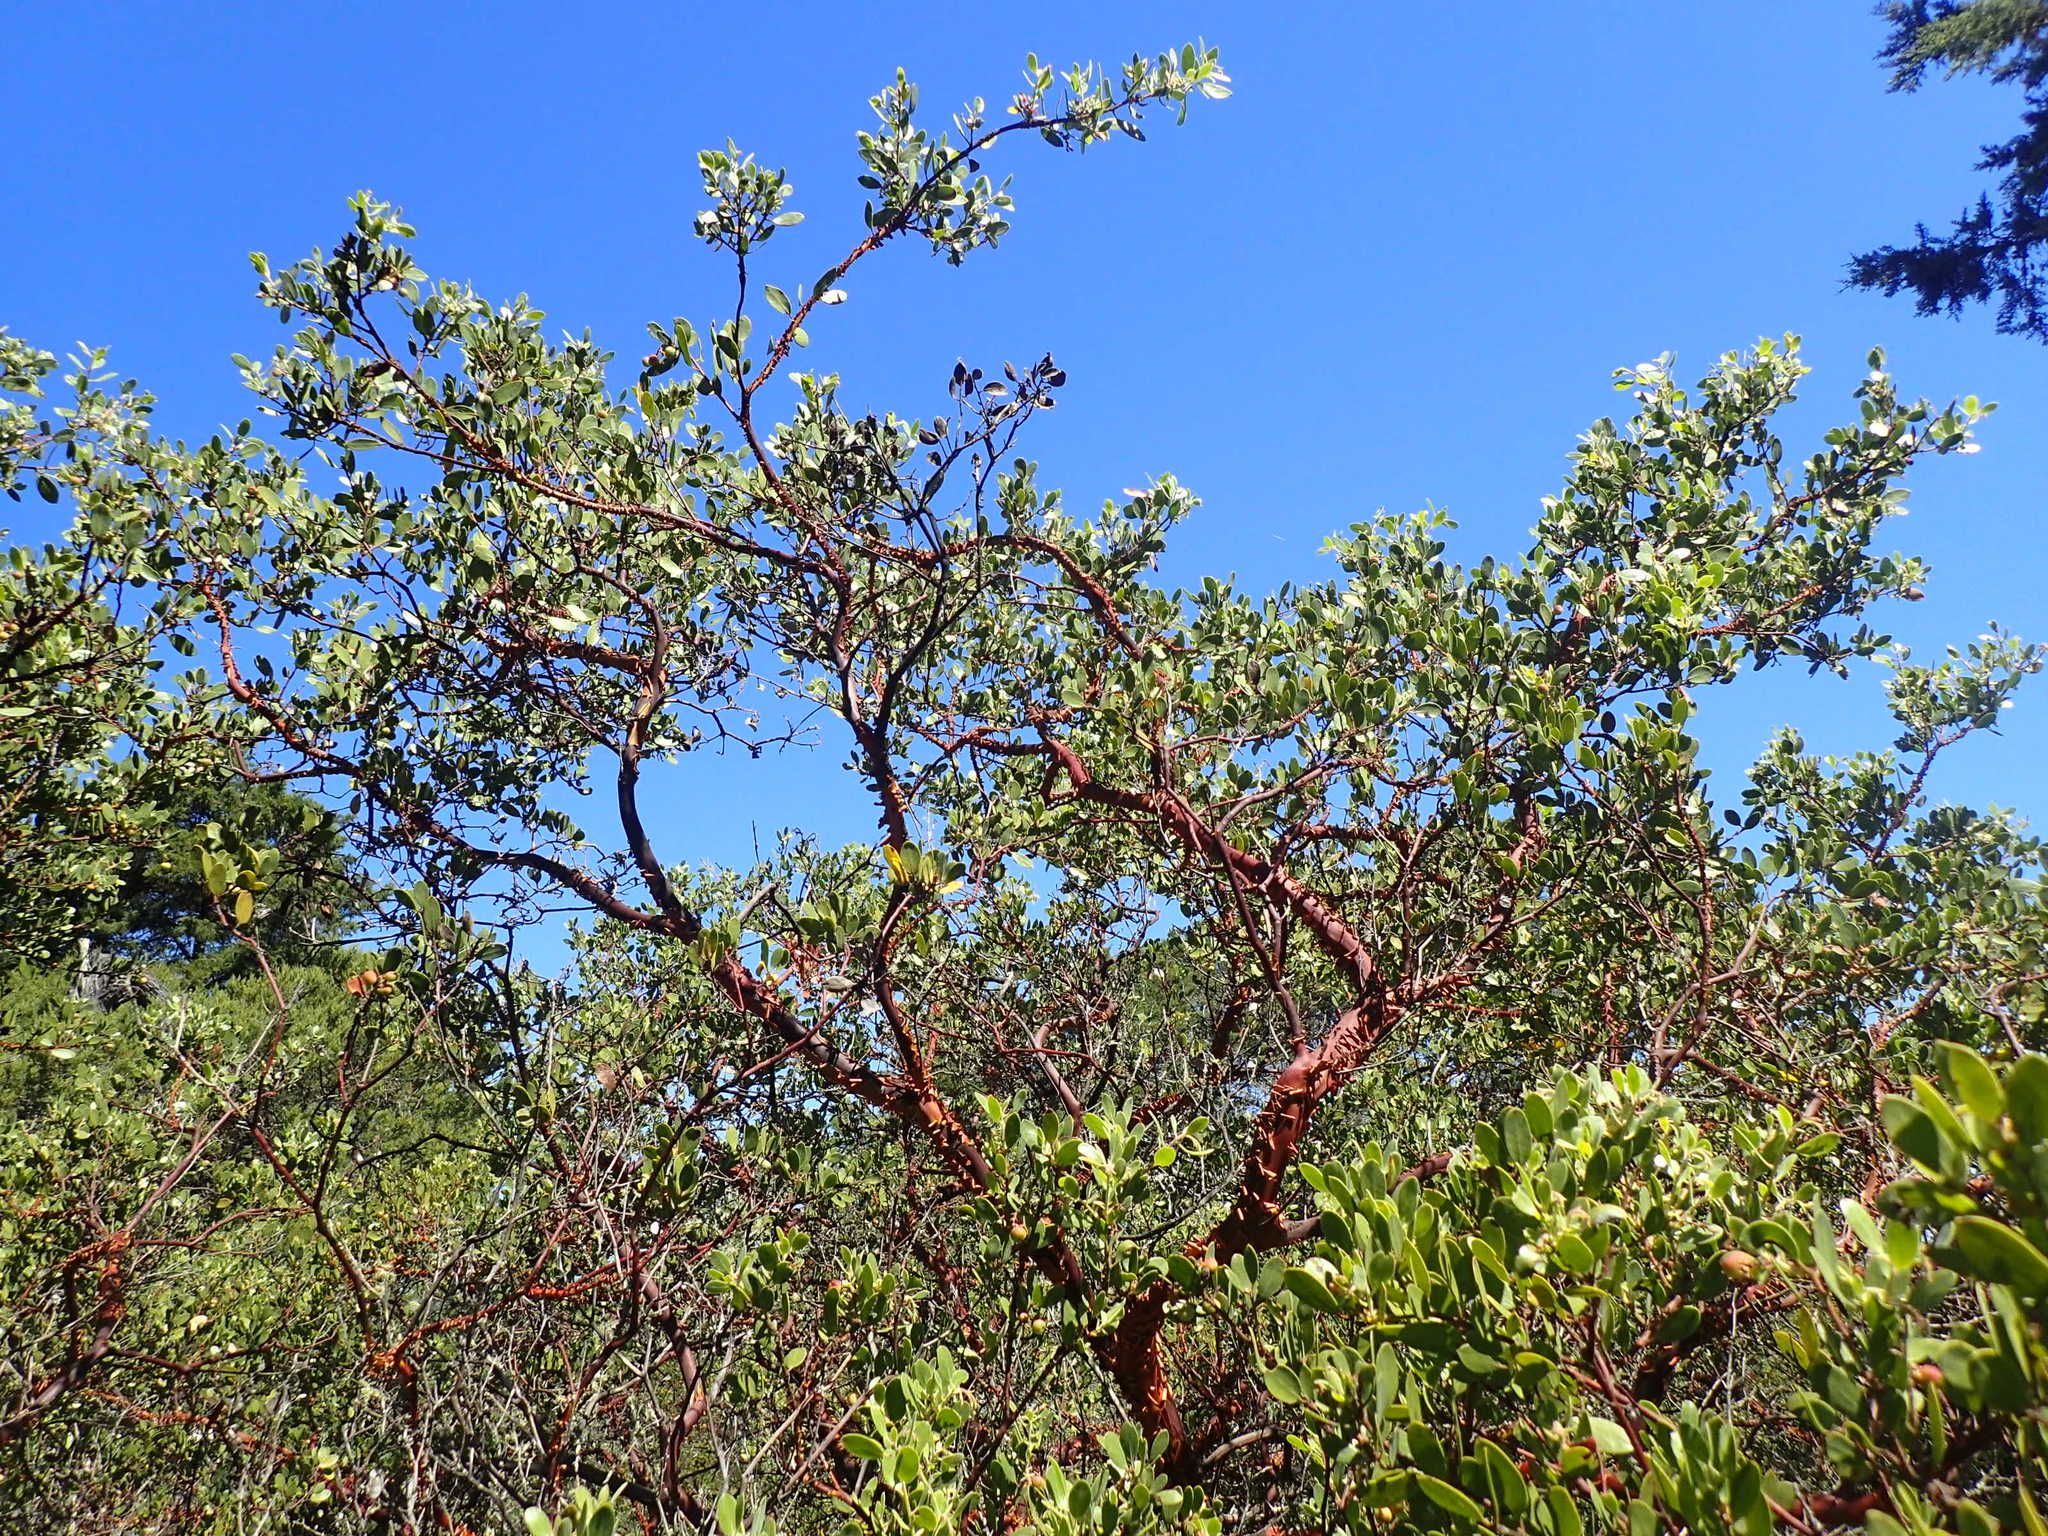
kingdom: Plantae
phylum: Tracheophyta
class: Magnoliopsida
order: Ericales
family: Ericaceae
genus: Arctostaphylos
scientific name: Arctostaphylos bakeri
